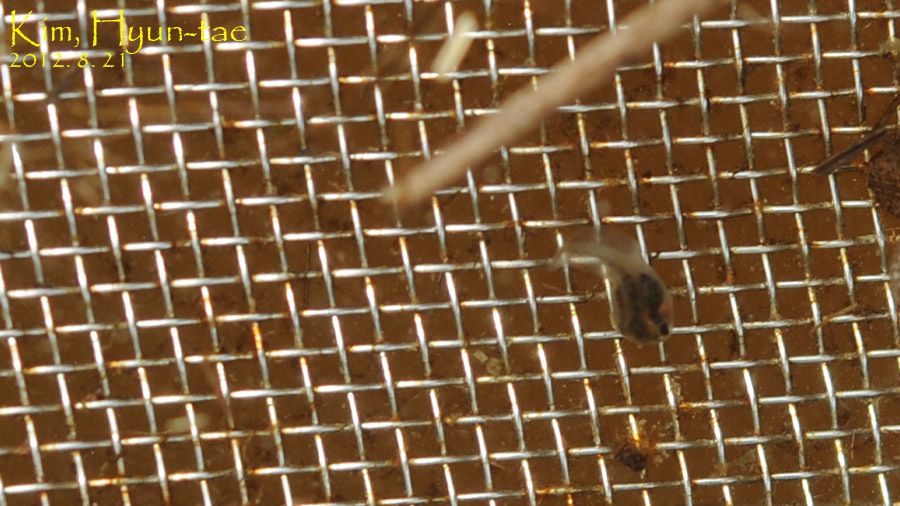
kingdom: Animalia
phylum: Chordata
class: Amphibia
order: Anura
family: Hylidae
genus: Dryophytes
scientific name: Dryophytes japonicus
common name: Japanese treefrog
